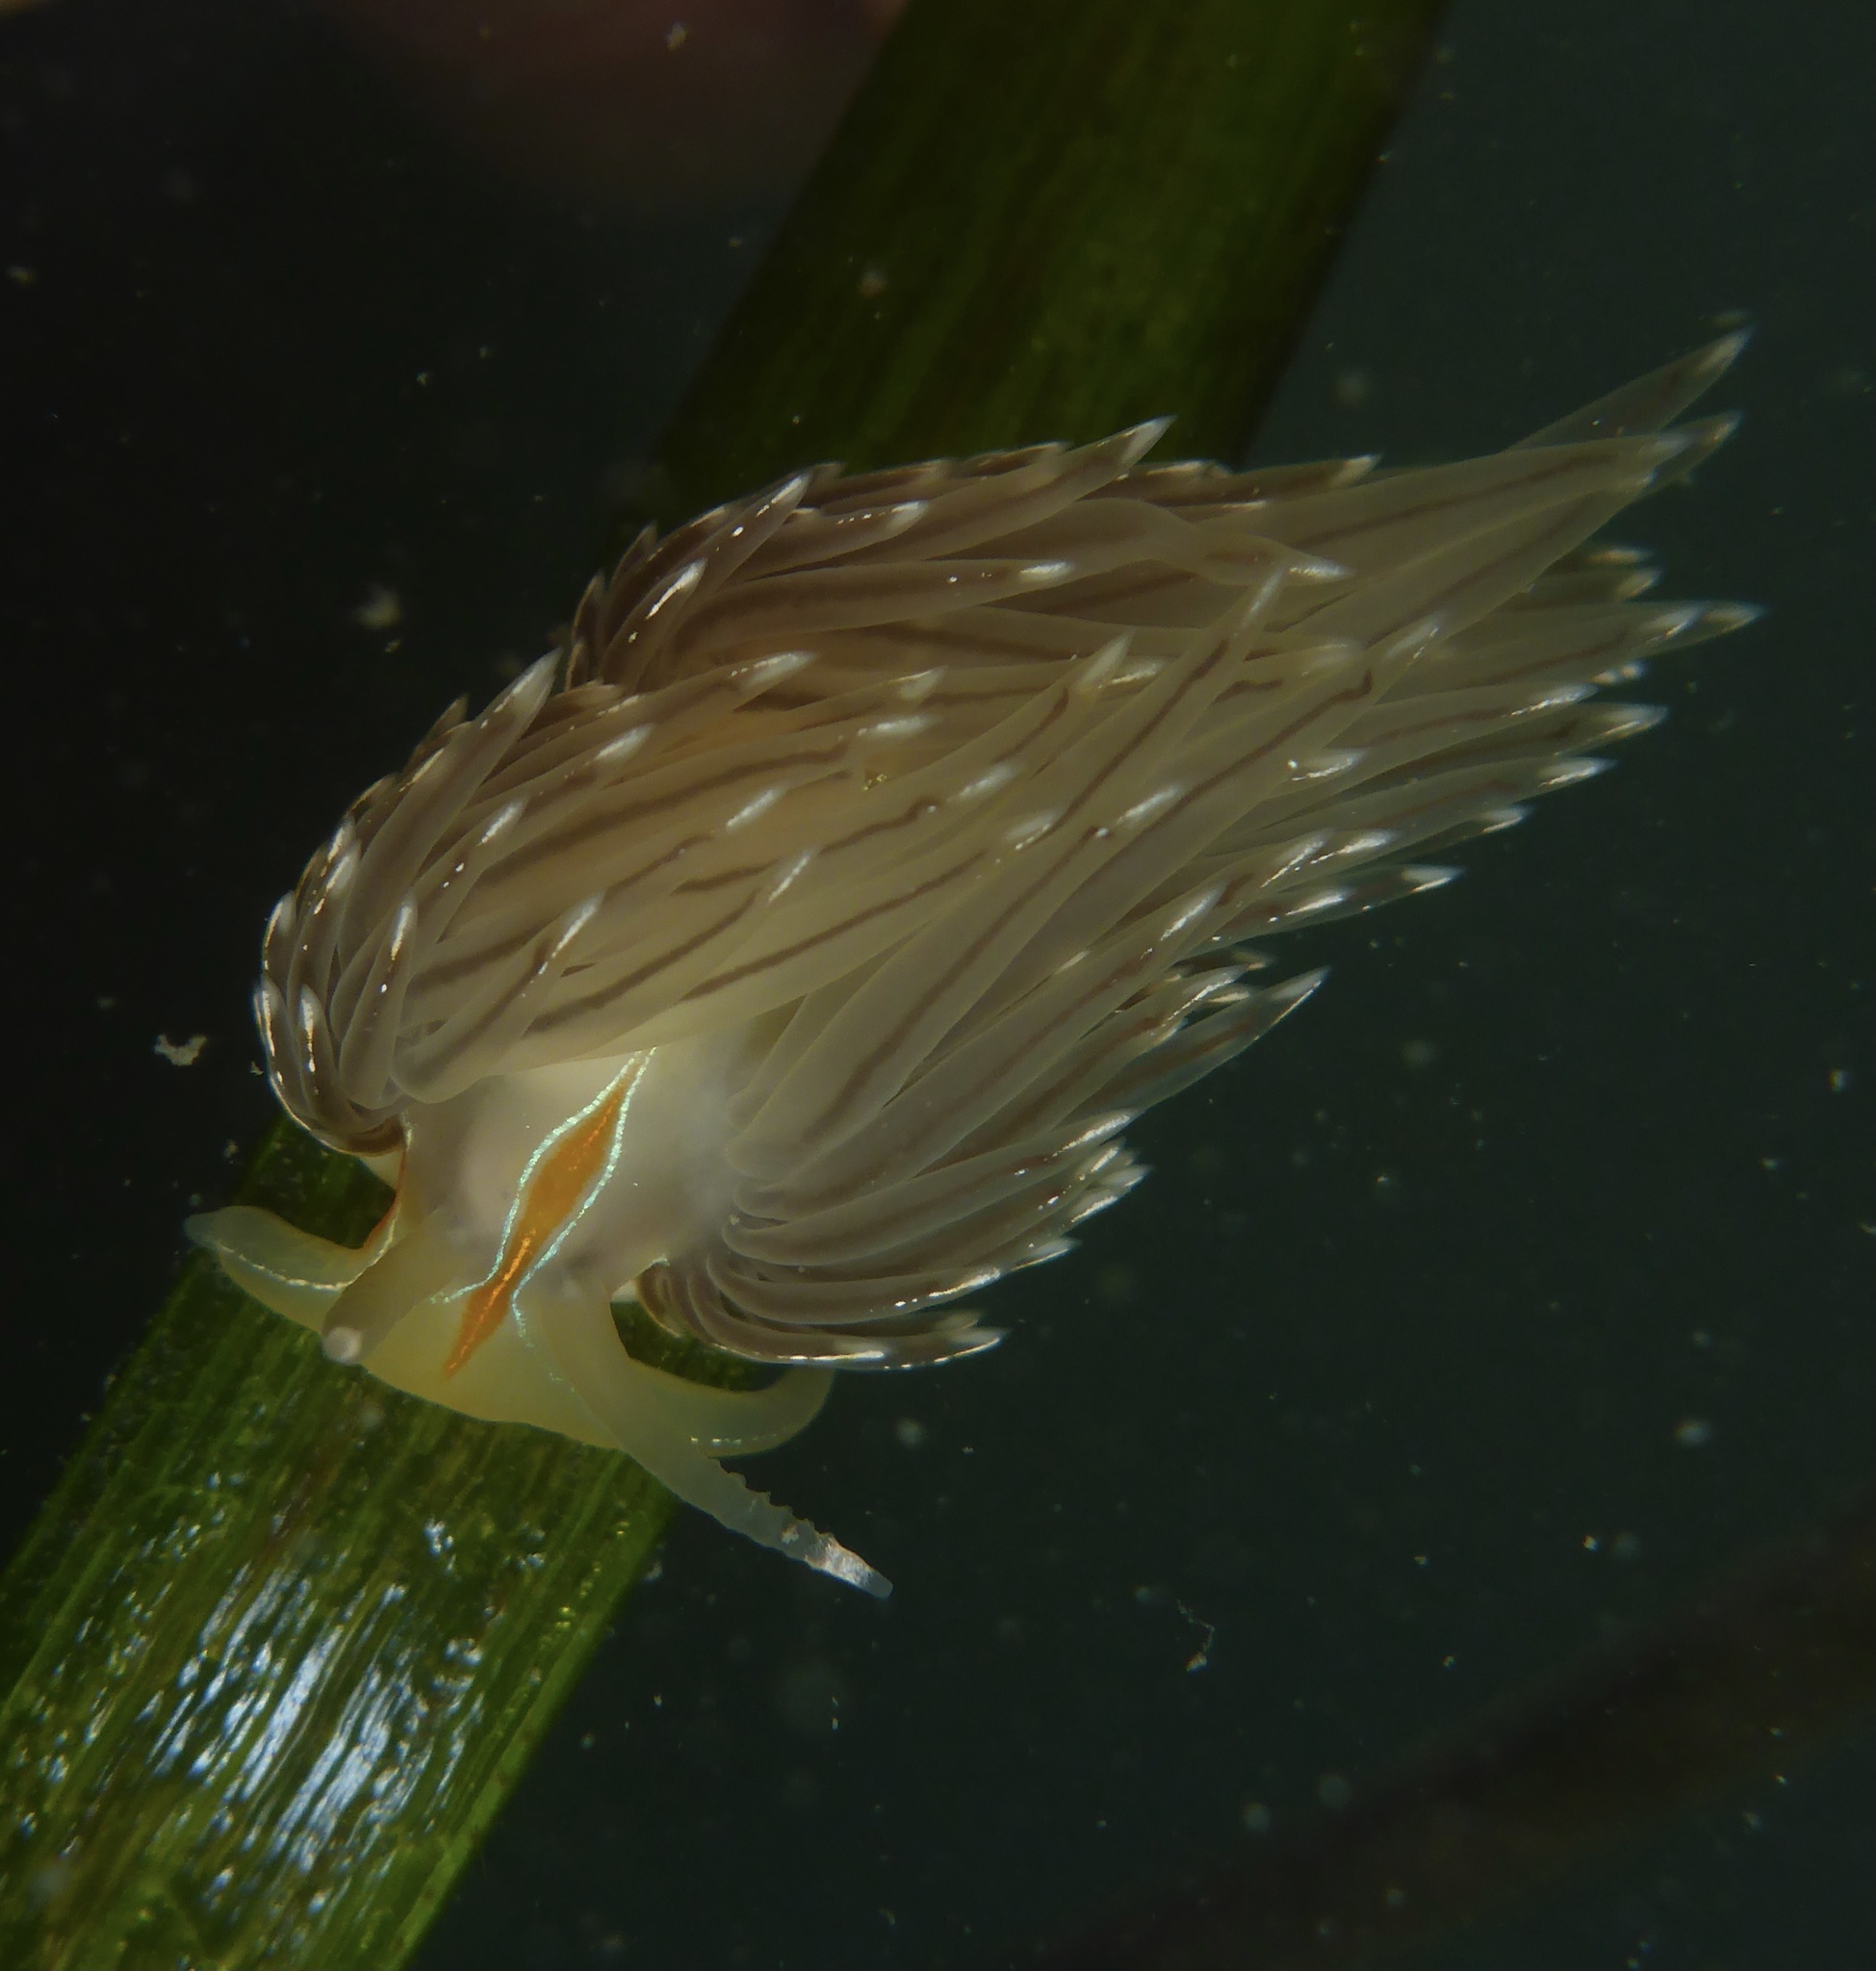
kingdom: Animalia
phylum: Mollusca
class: Gastropoda
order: Nudibranchia
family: Myrrhinidae
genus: Hermissenda
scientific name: Hermissenda crassicornis
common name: Hermissenda
